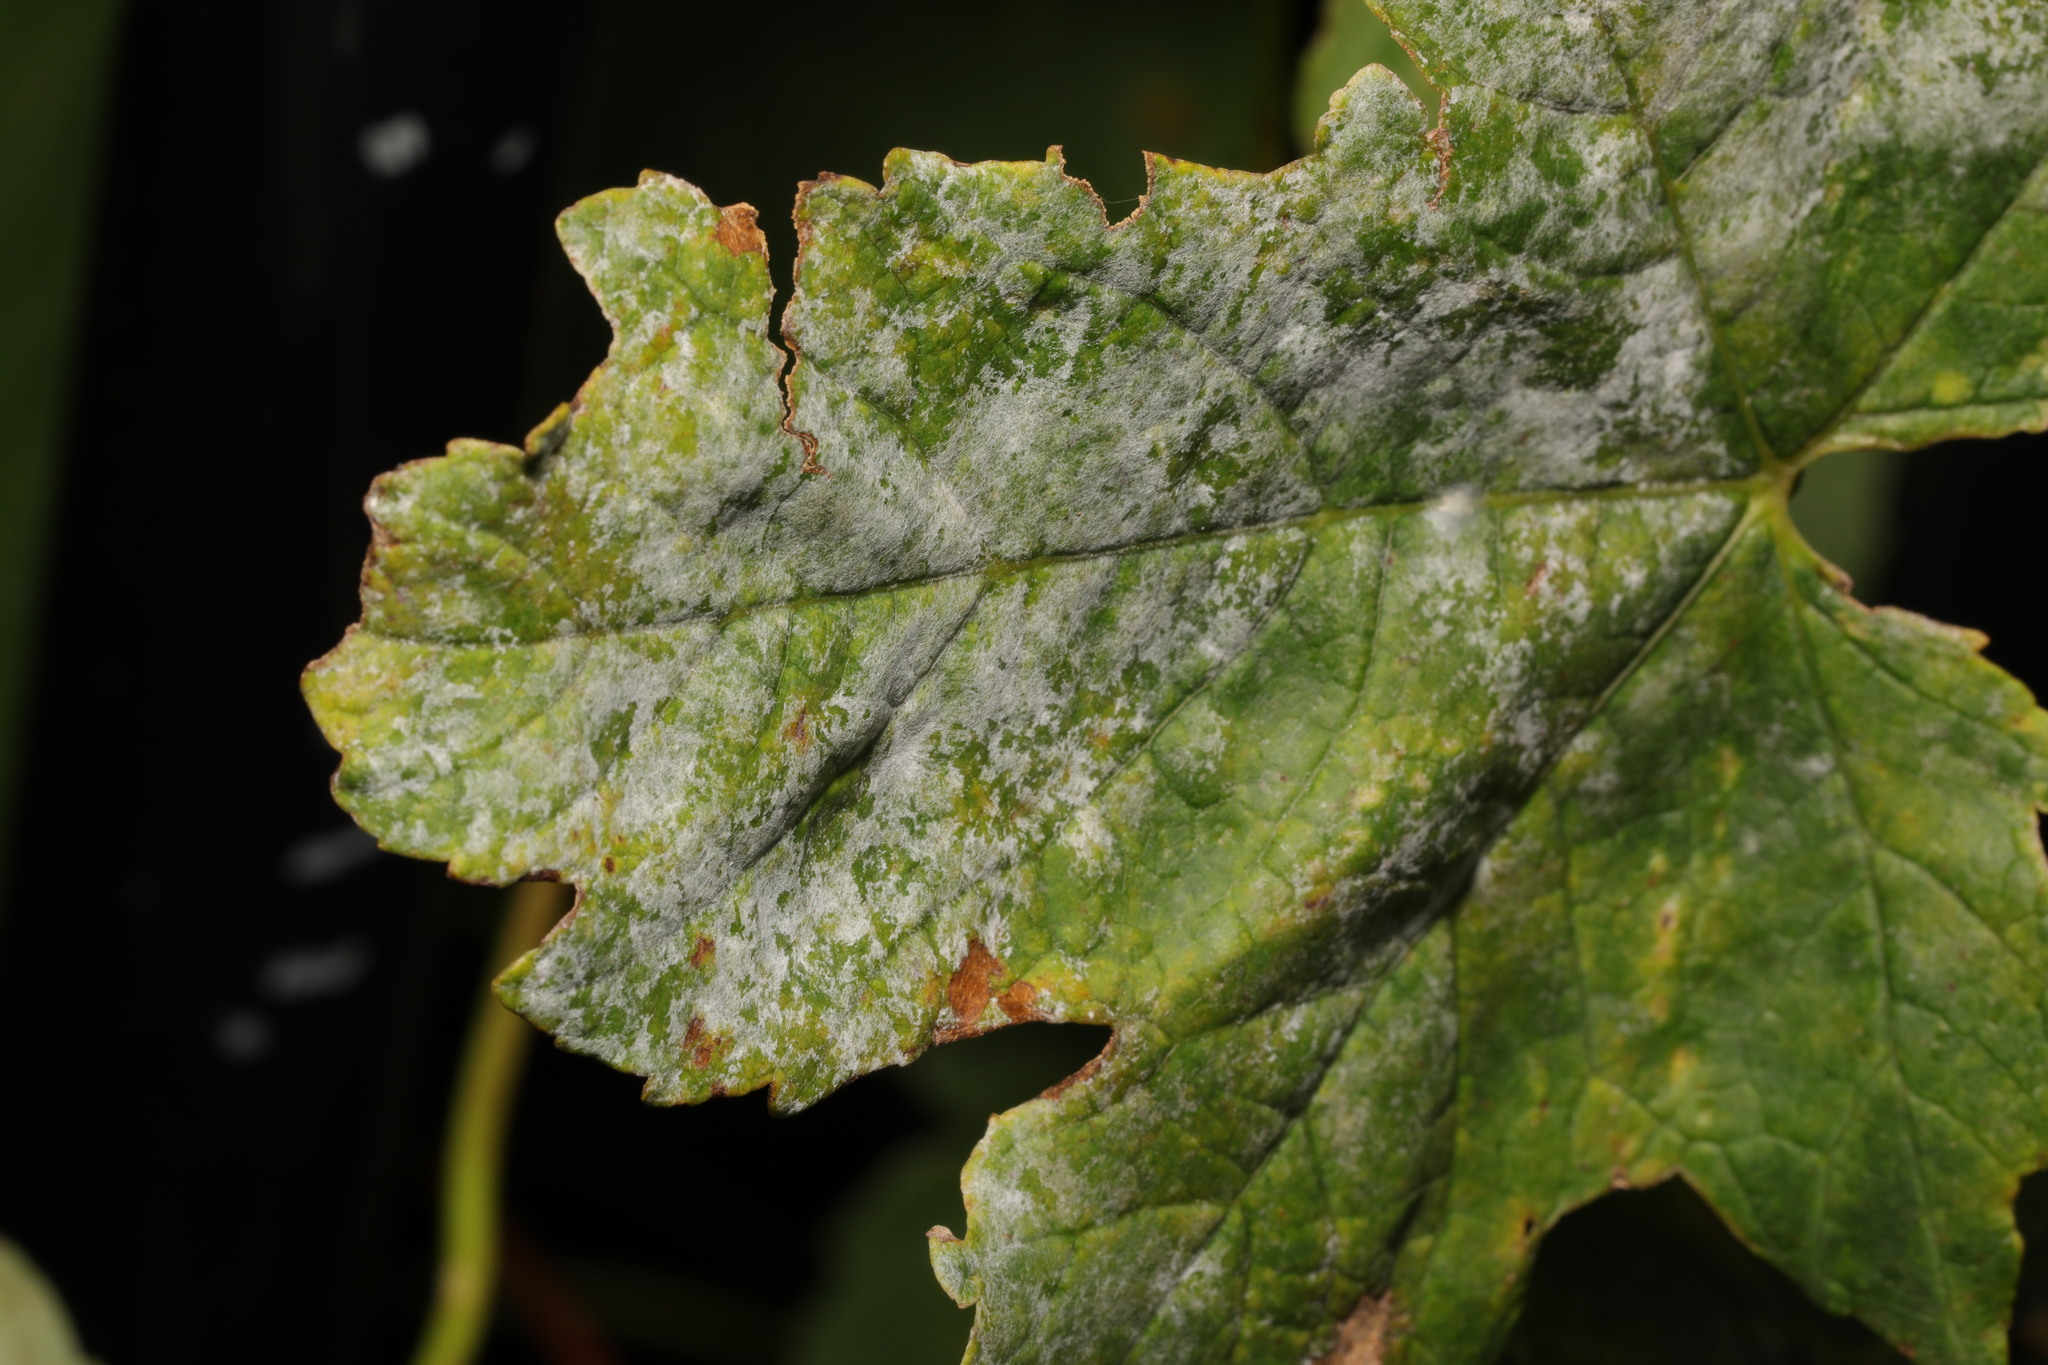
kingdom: Fungi
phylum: Ascomycota
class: Leotiomycetes
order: Helotiales
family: Erysiphaceae
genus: Sawadaea
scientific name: Sawadaea bicornis
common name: Maple mildew
